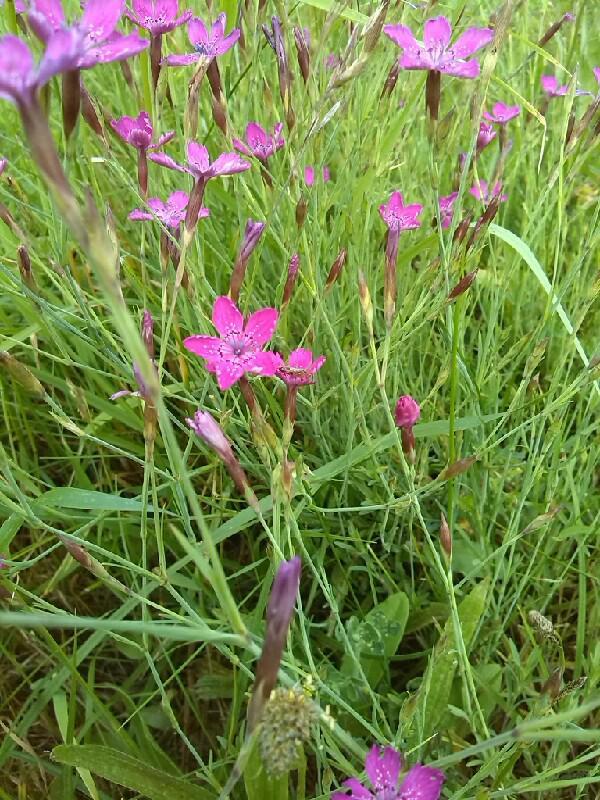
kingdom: Plantae
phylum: Tracheophyta
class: Magnoliopsida
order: Caryophyllales
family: Caryophyllaceae
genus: Dianthus
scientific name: Dianthus deltoides
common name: Maiden pink
